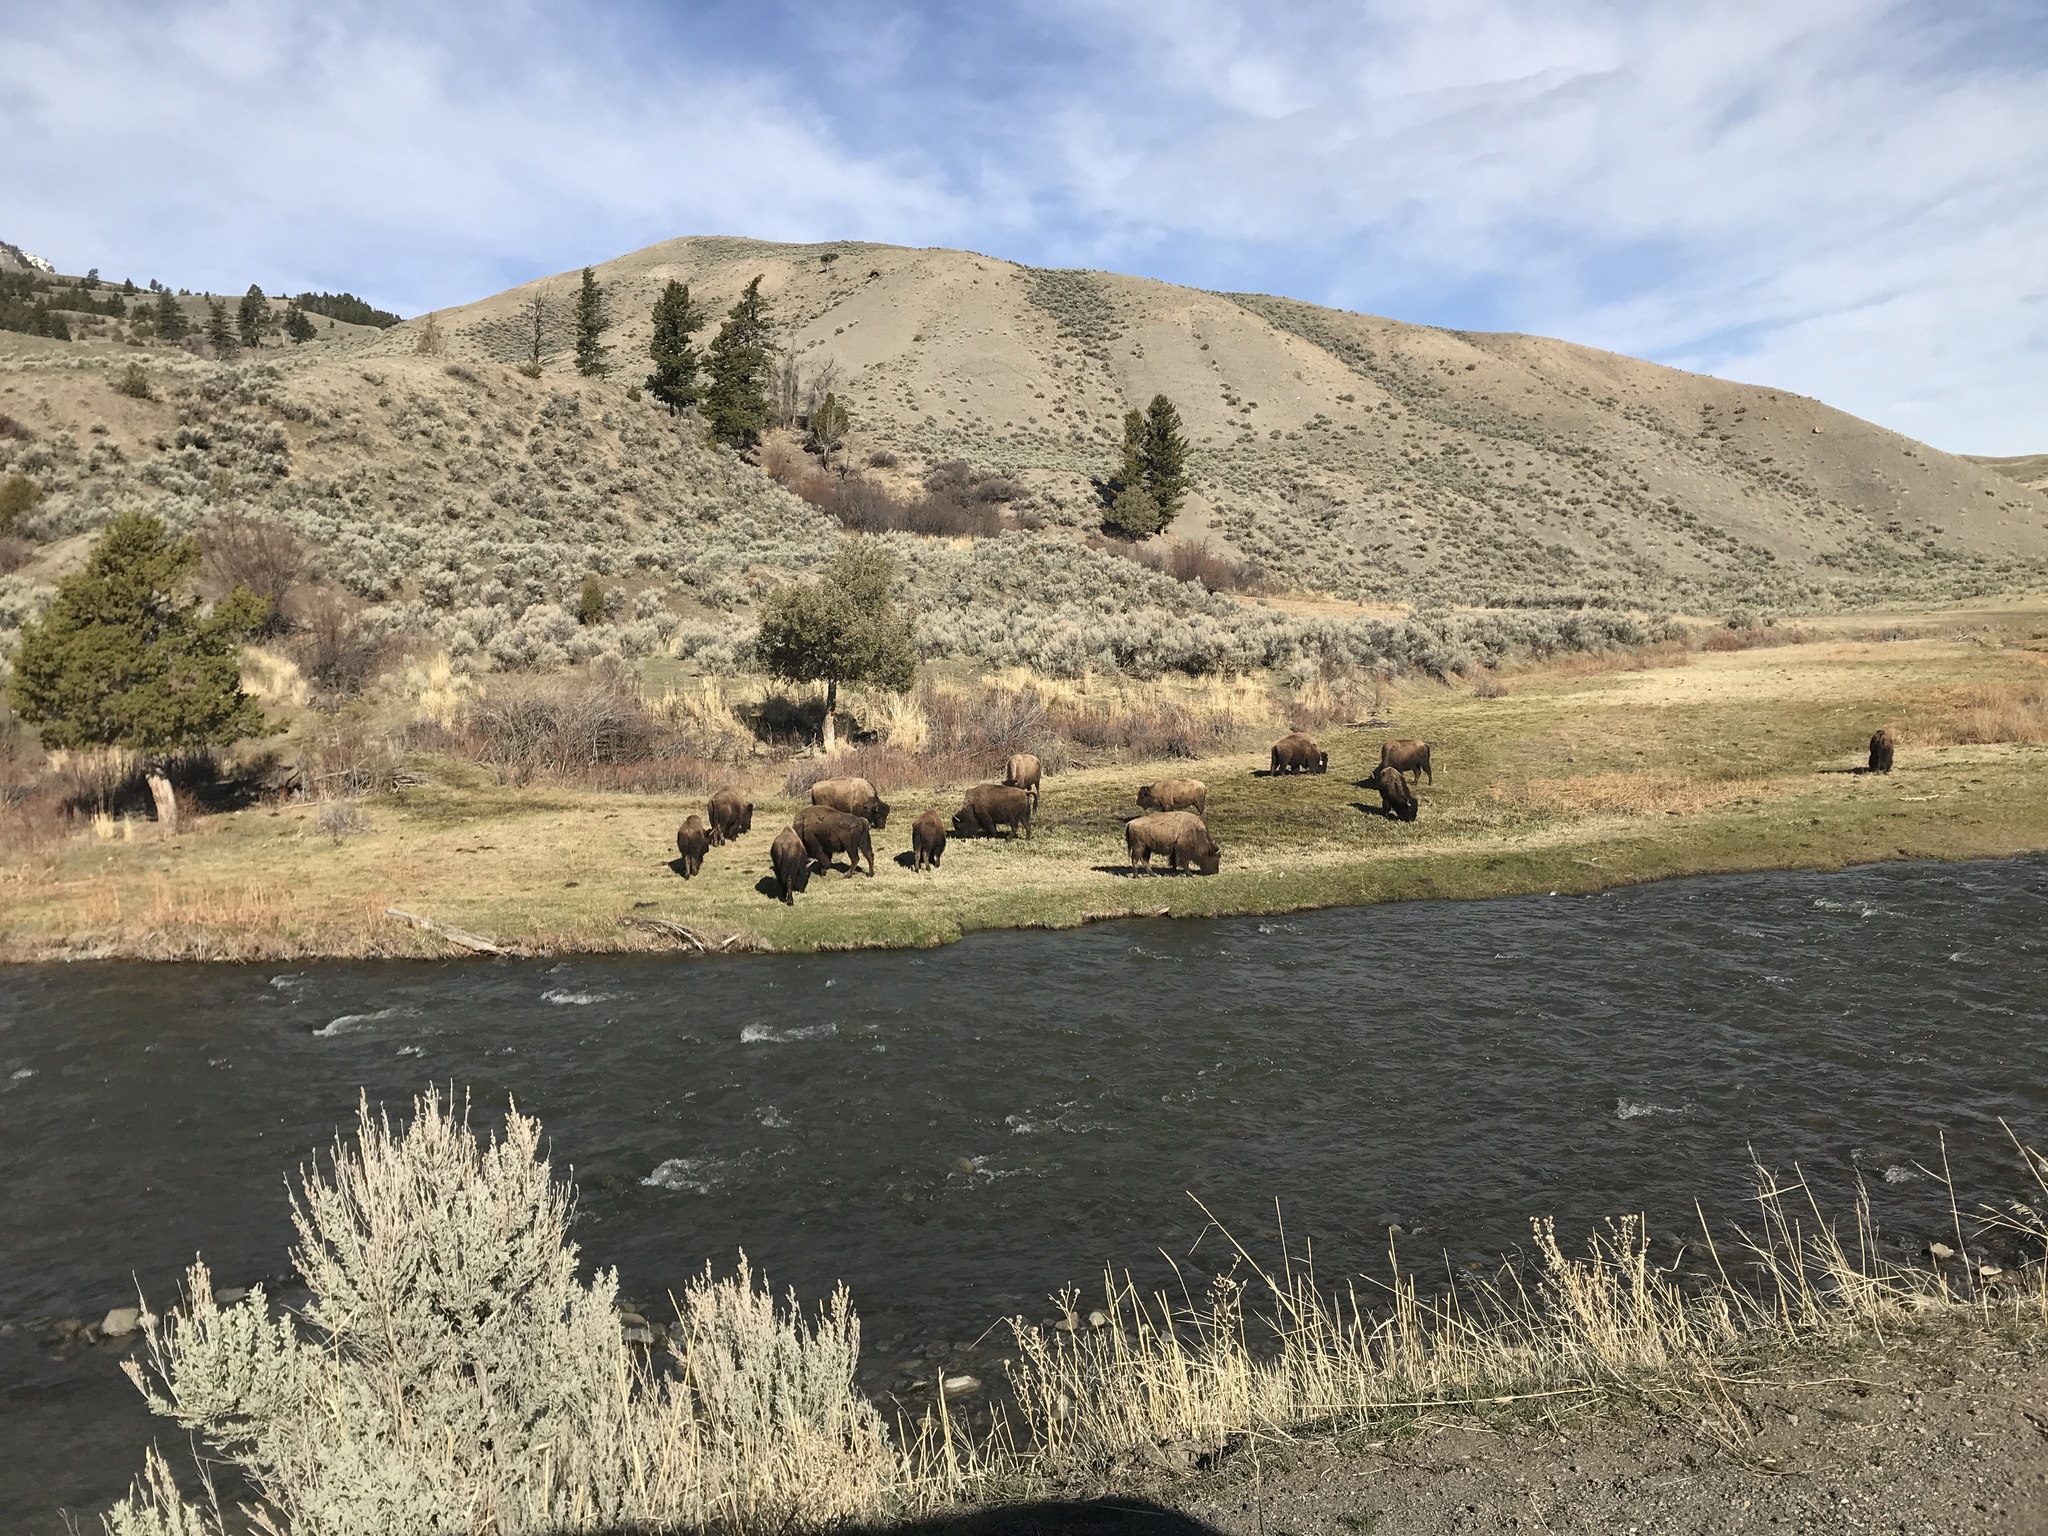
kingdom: Animalia
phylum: Chordata
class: Mammalia
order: Artiodactyla
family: Bovidae
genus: Bison
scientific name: Bison bison
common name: American bison
